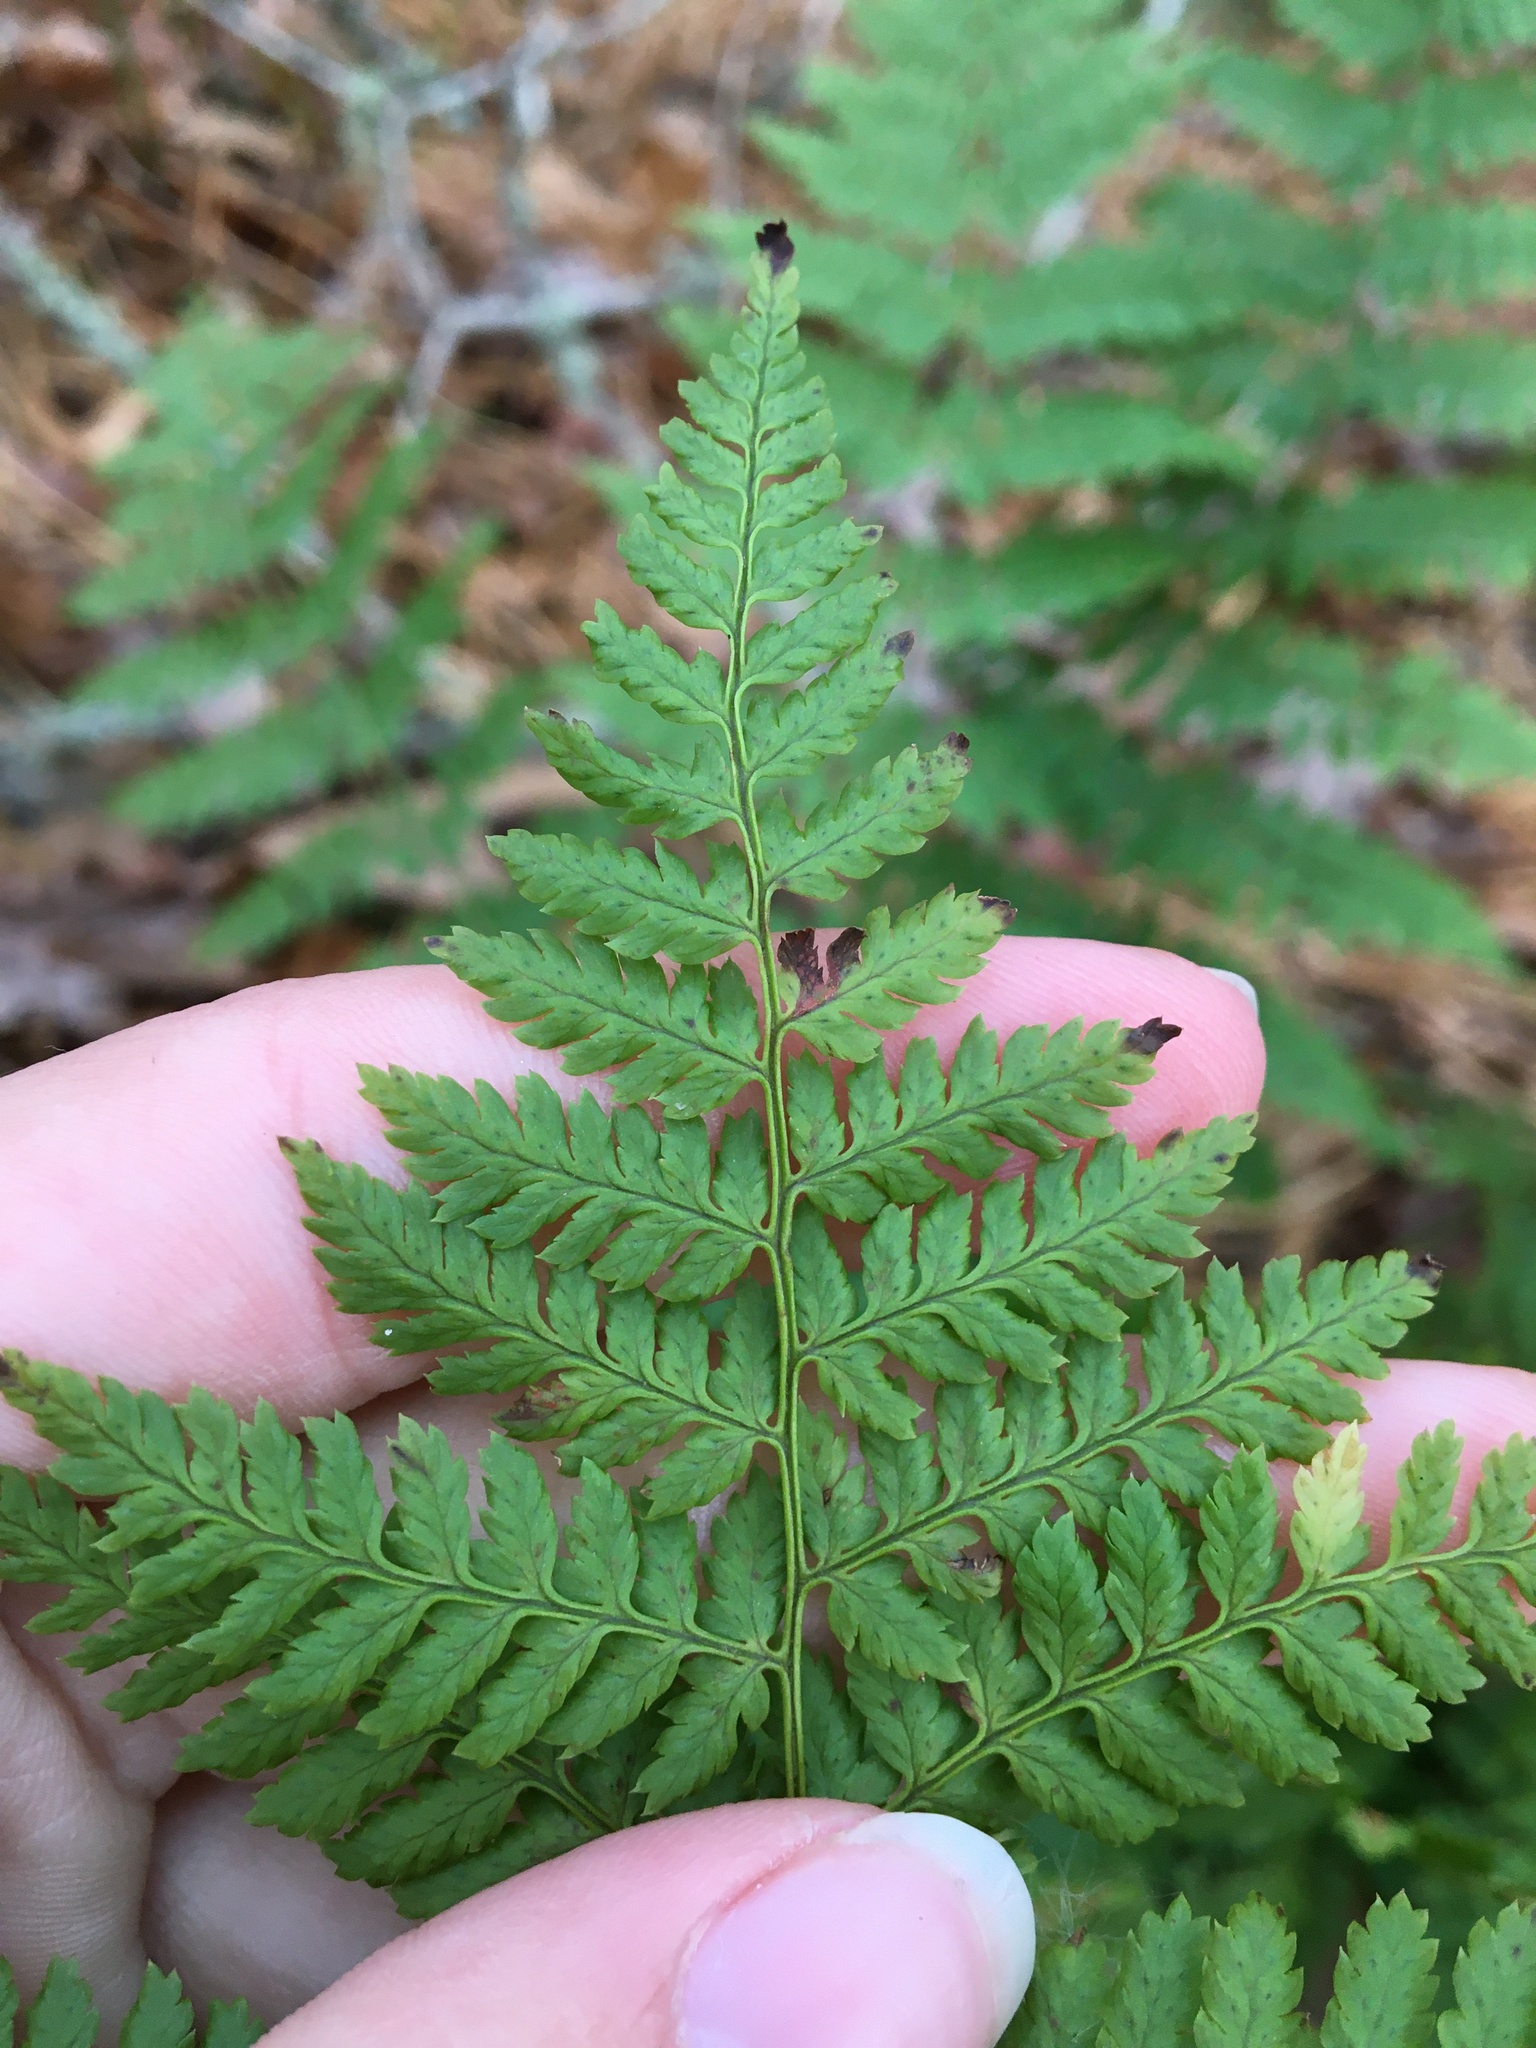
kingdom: Plantae
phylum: Tracheophyta
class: Polypodiopsida
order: Polypodiales
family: Dryopteridaceae
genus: Dryopteris
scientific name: Dryopteris intermedia
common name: Evergreen wood fern
